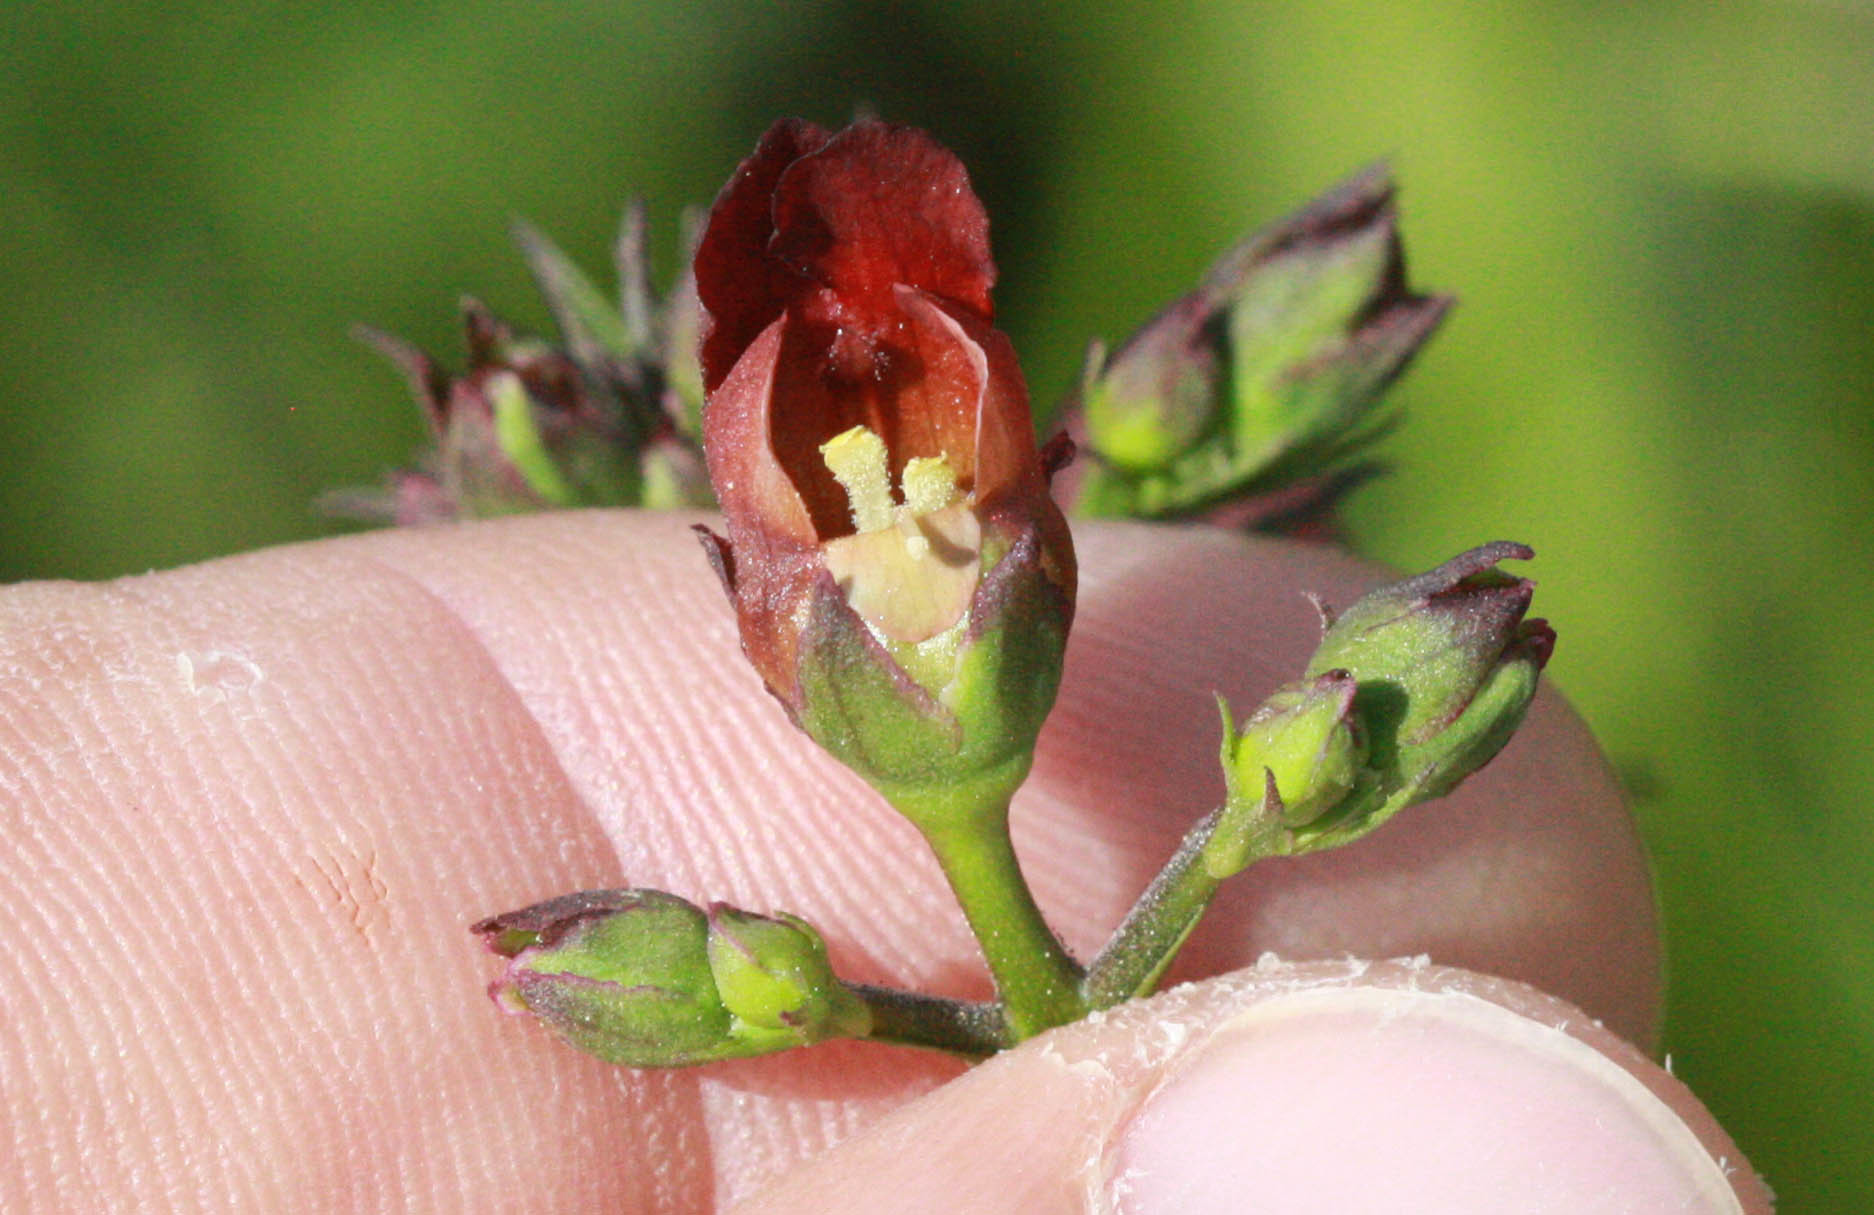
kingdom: Plantae
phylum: Tracheophyta
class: Magnoliopsida
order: Lamiales
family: Scrophulariaceae
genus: Scrophularia
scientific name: Scrophularia californica
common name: California figwort
